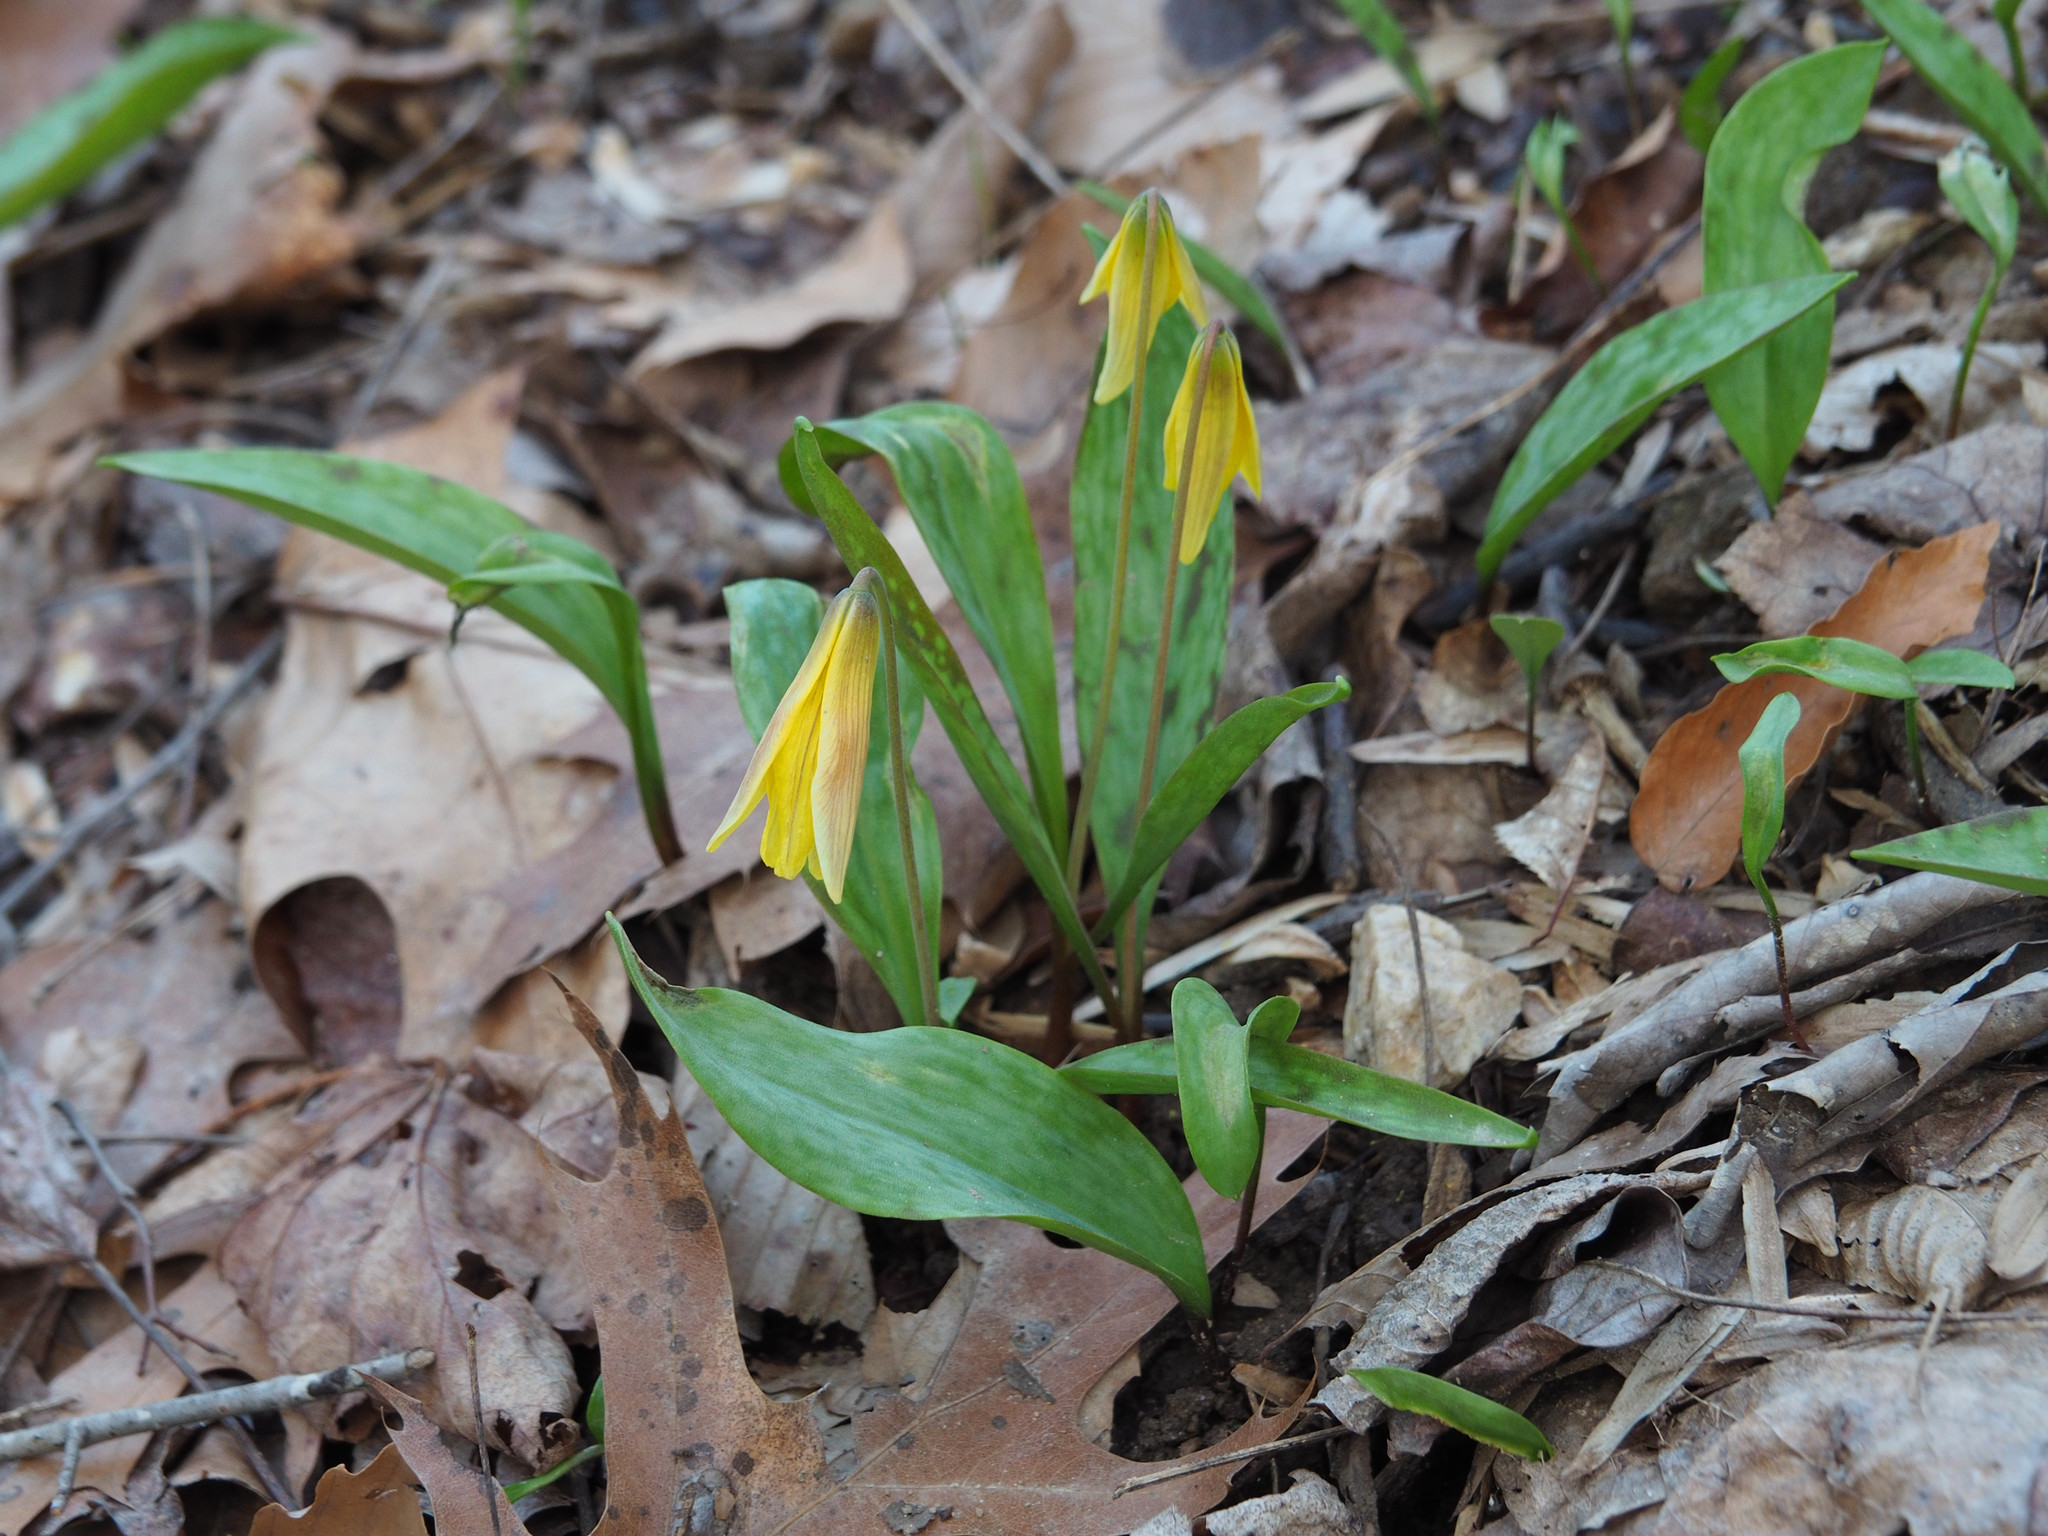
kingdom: Plantae
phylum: Tracheophyta
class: Liliopsida
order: Liliales
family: Liliaceae
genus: Erythronium
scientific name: Erythronium americanum
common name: Yellow adder's-tongue
